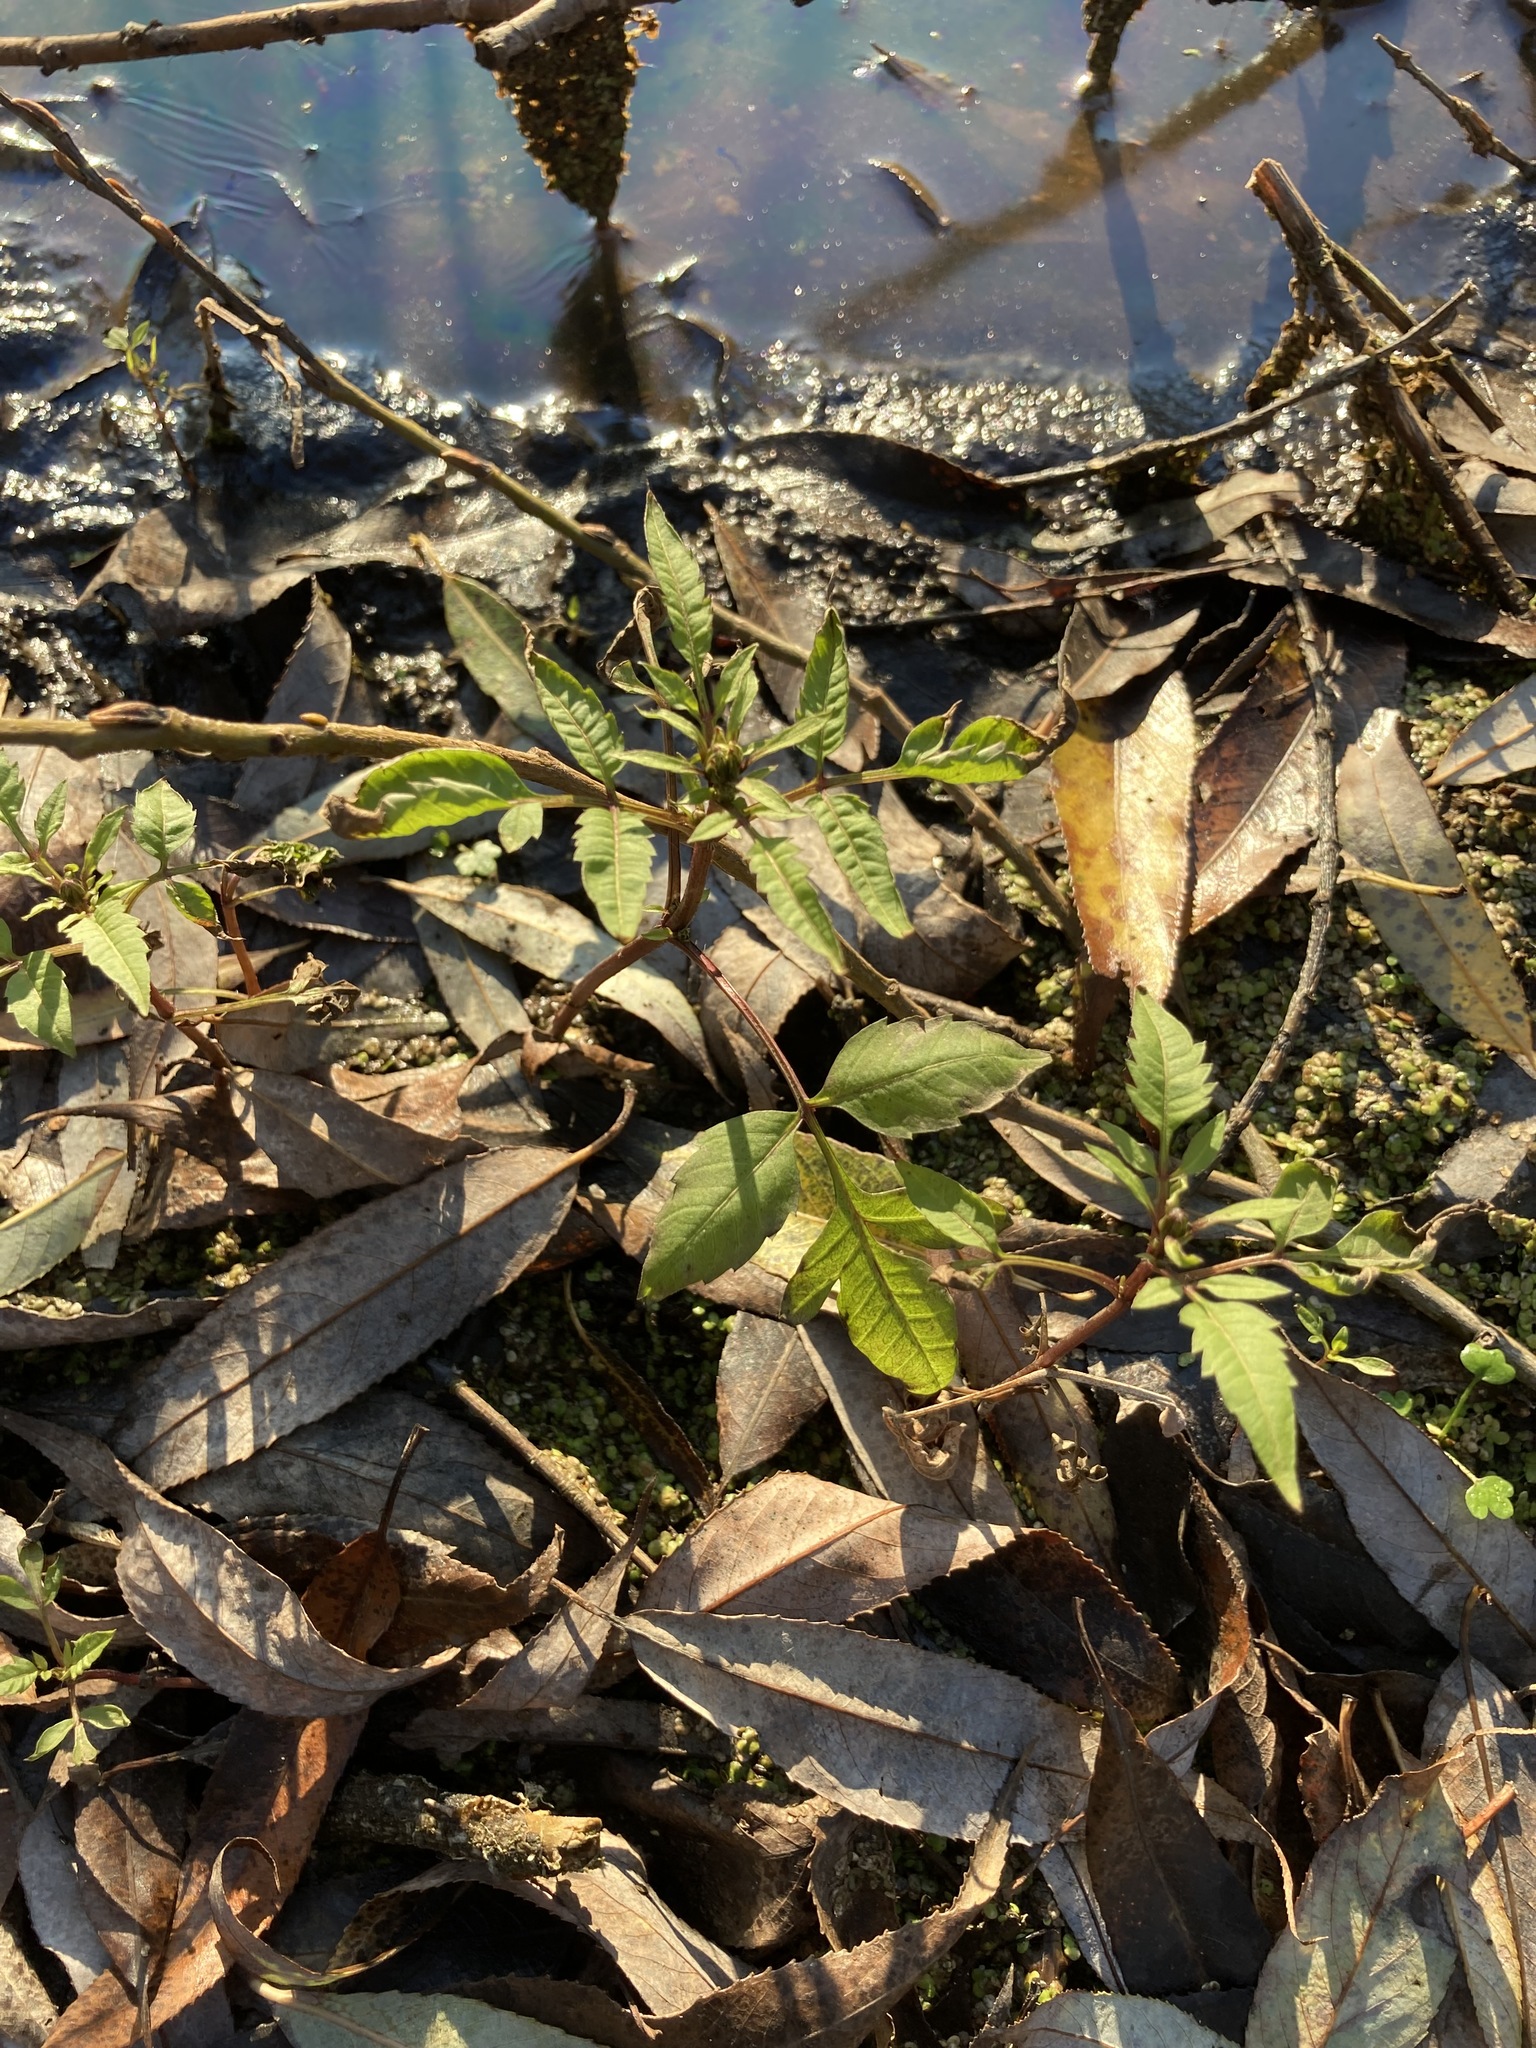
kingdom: Plantae
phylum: Tracheophyta
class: Magnoliopsida
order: Asterales
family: Asteraceae
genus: Bidens
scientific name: Bidens frondosa
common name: Beggarticks
